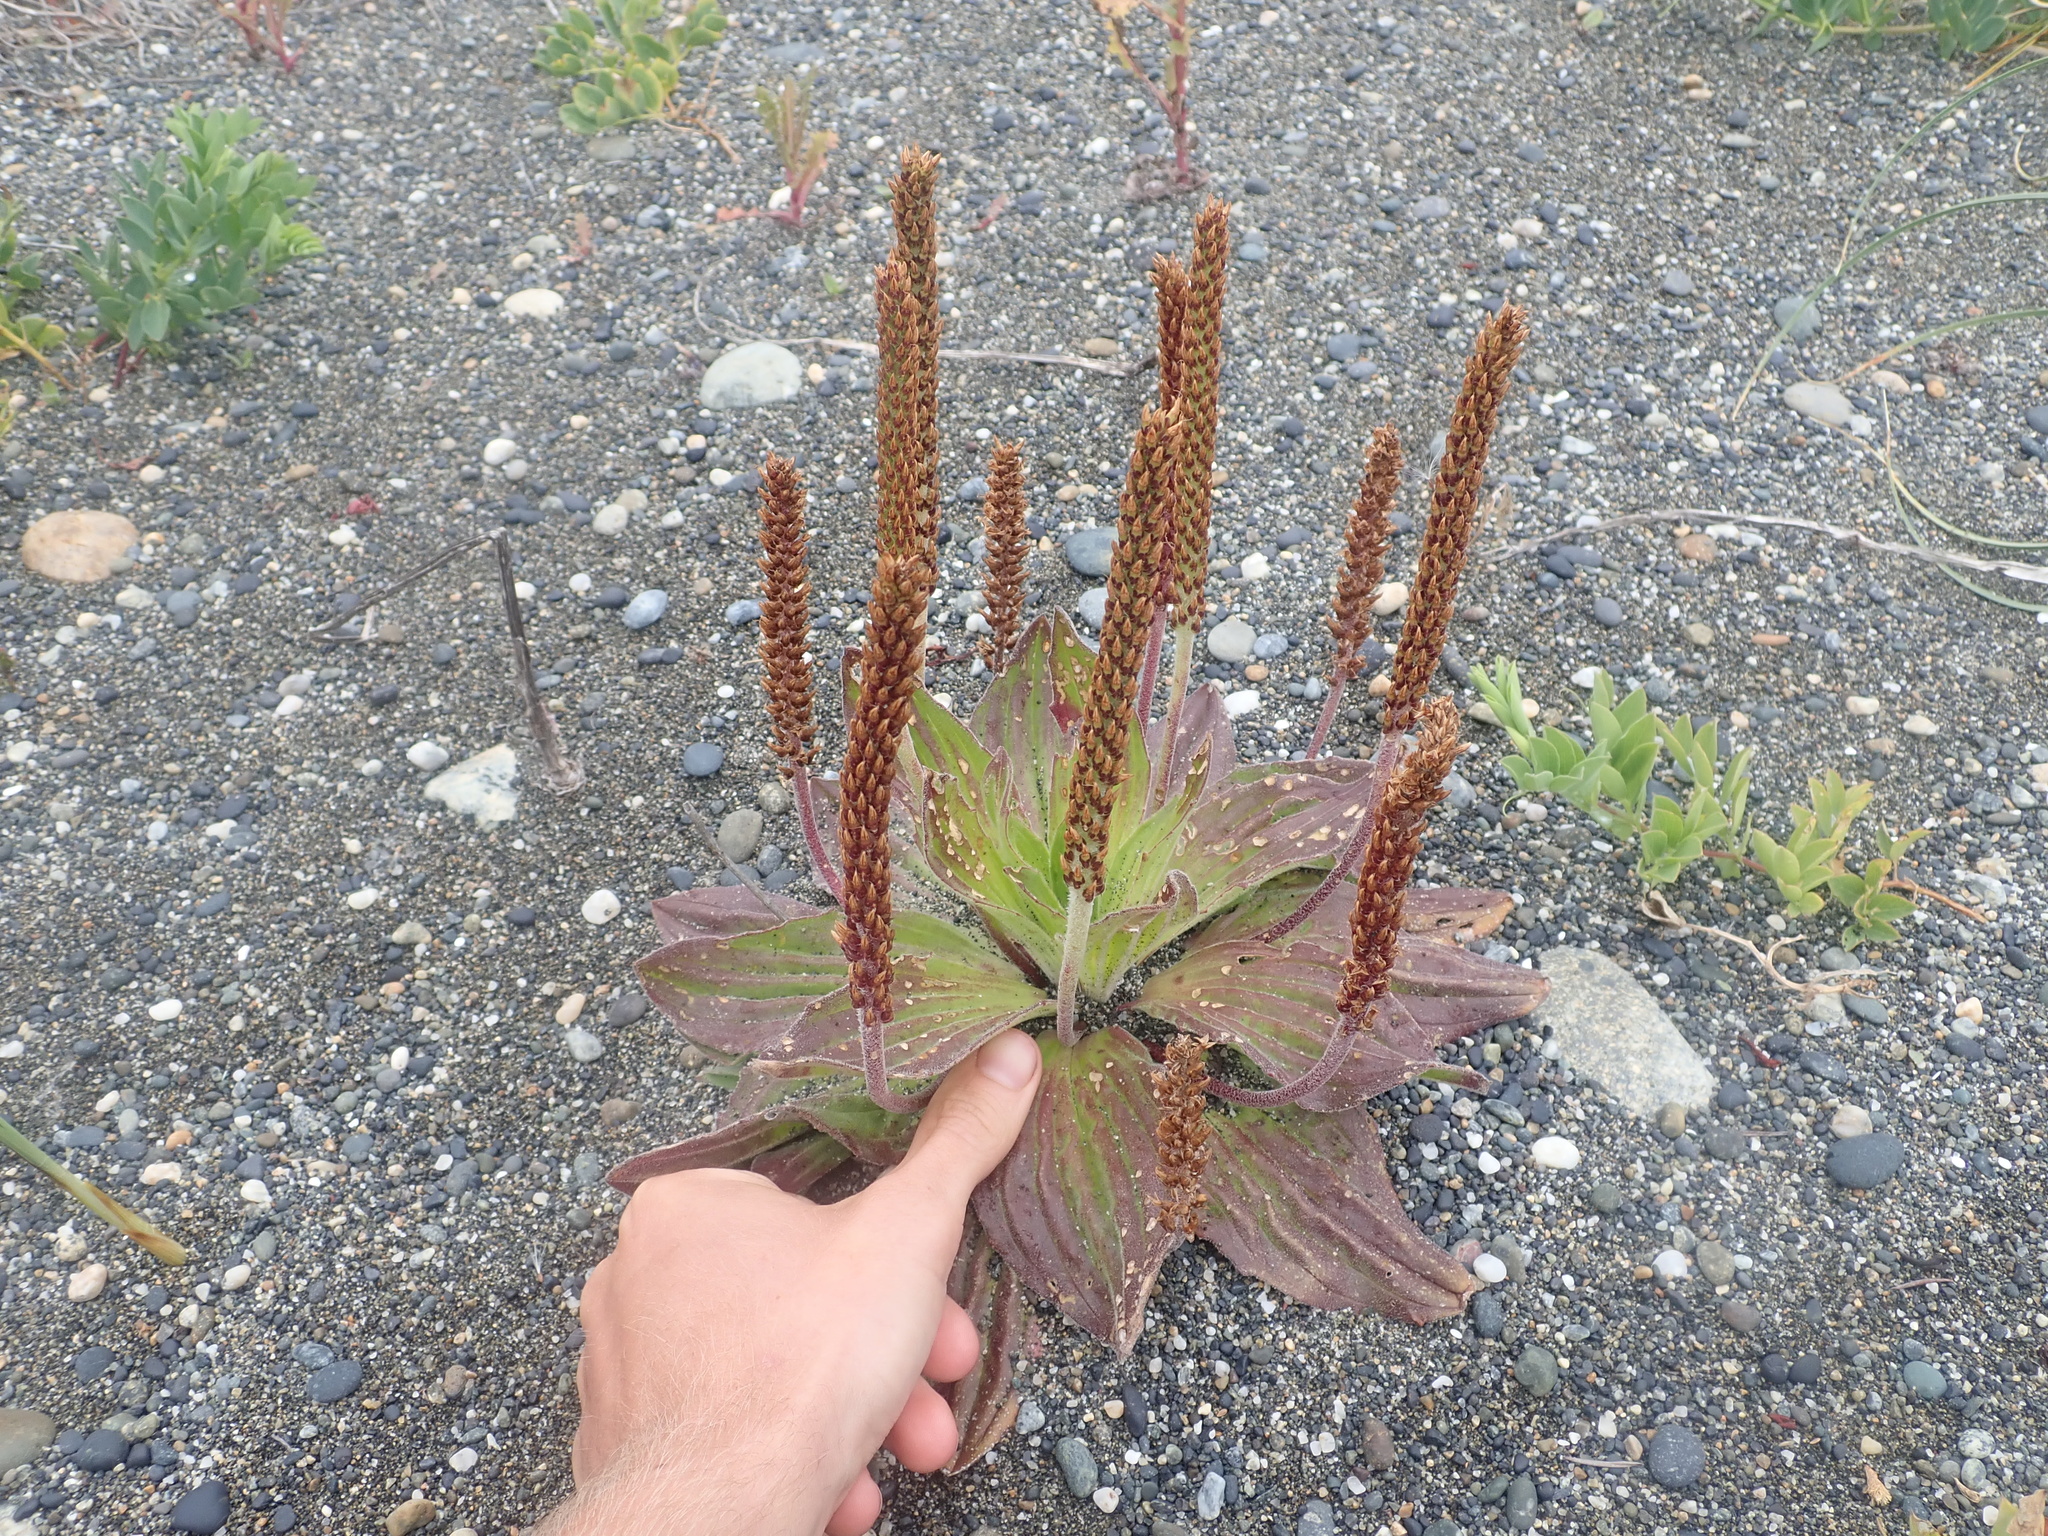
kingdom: Plantae
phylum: Tracheophyta
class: Magnoliopsida
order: Lamiales
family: Plantaginaceae
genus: Plantago
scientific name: Plantago australis
